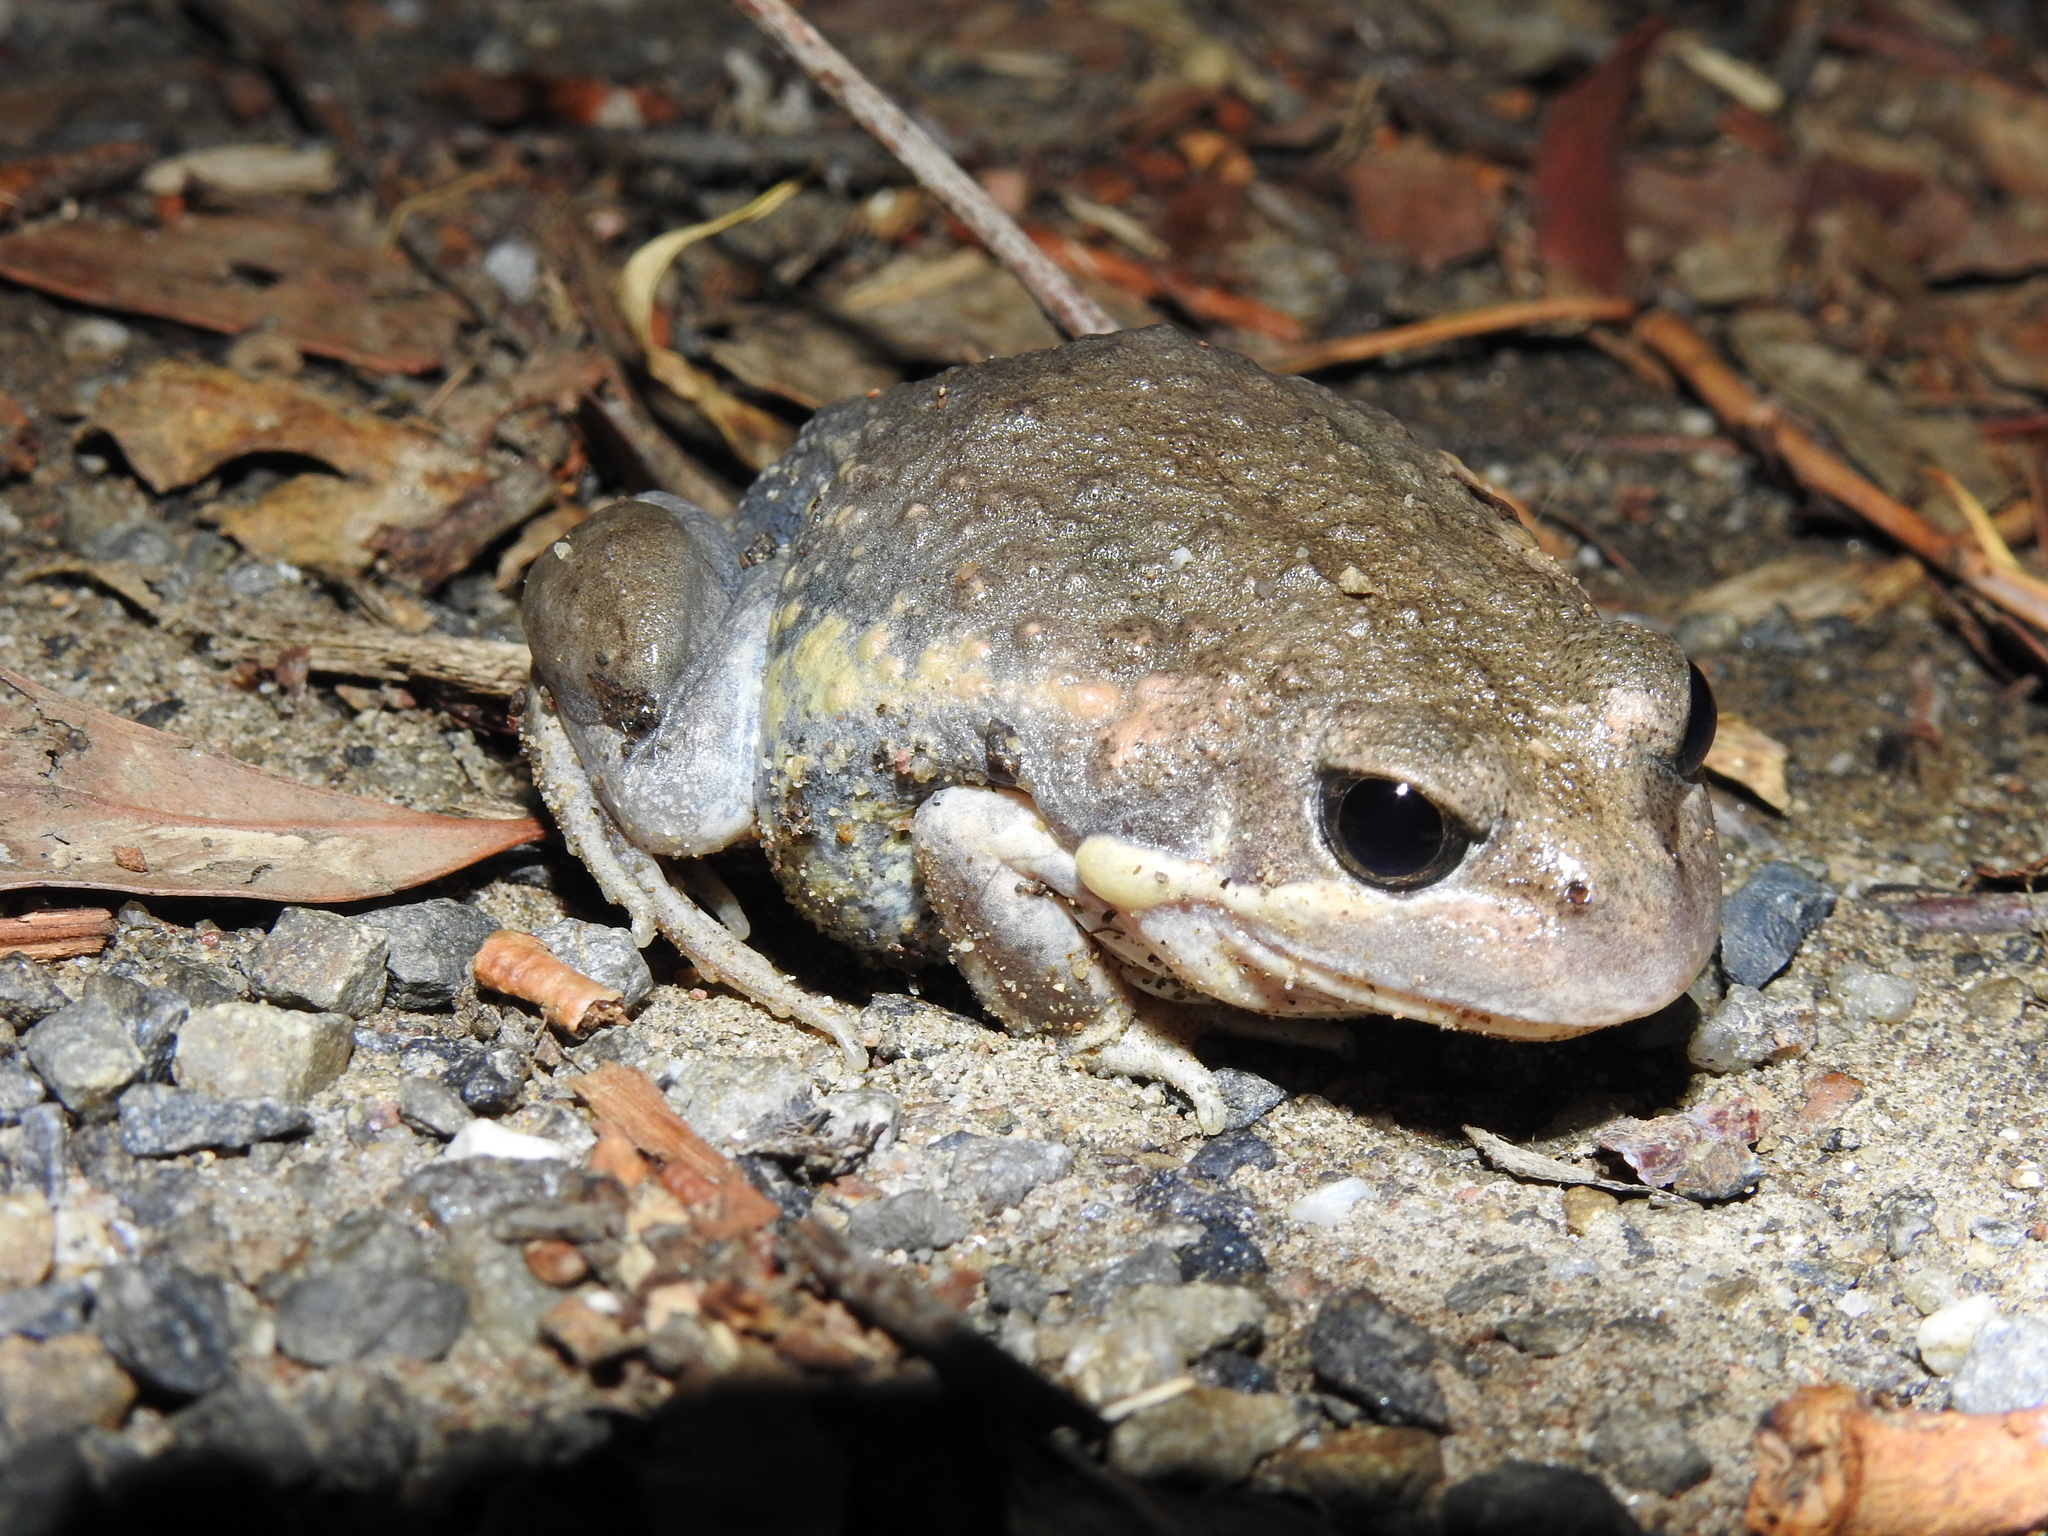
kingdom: Animalia
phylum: Chordata
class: Amphibia
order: Anura
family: Limnodynastidae
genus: Limnodynastes
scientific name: Limnodynastes dumerilii
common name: Banjo frog
